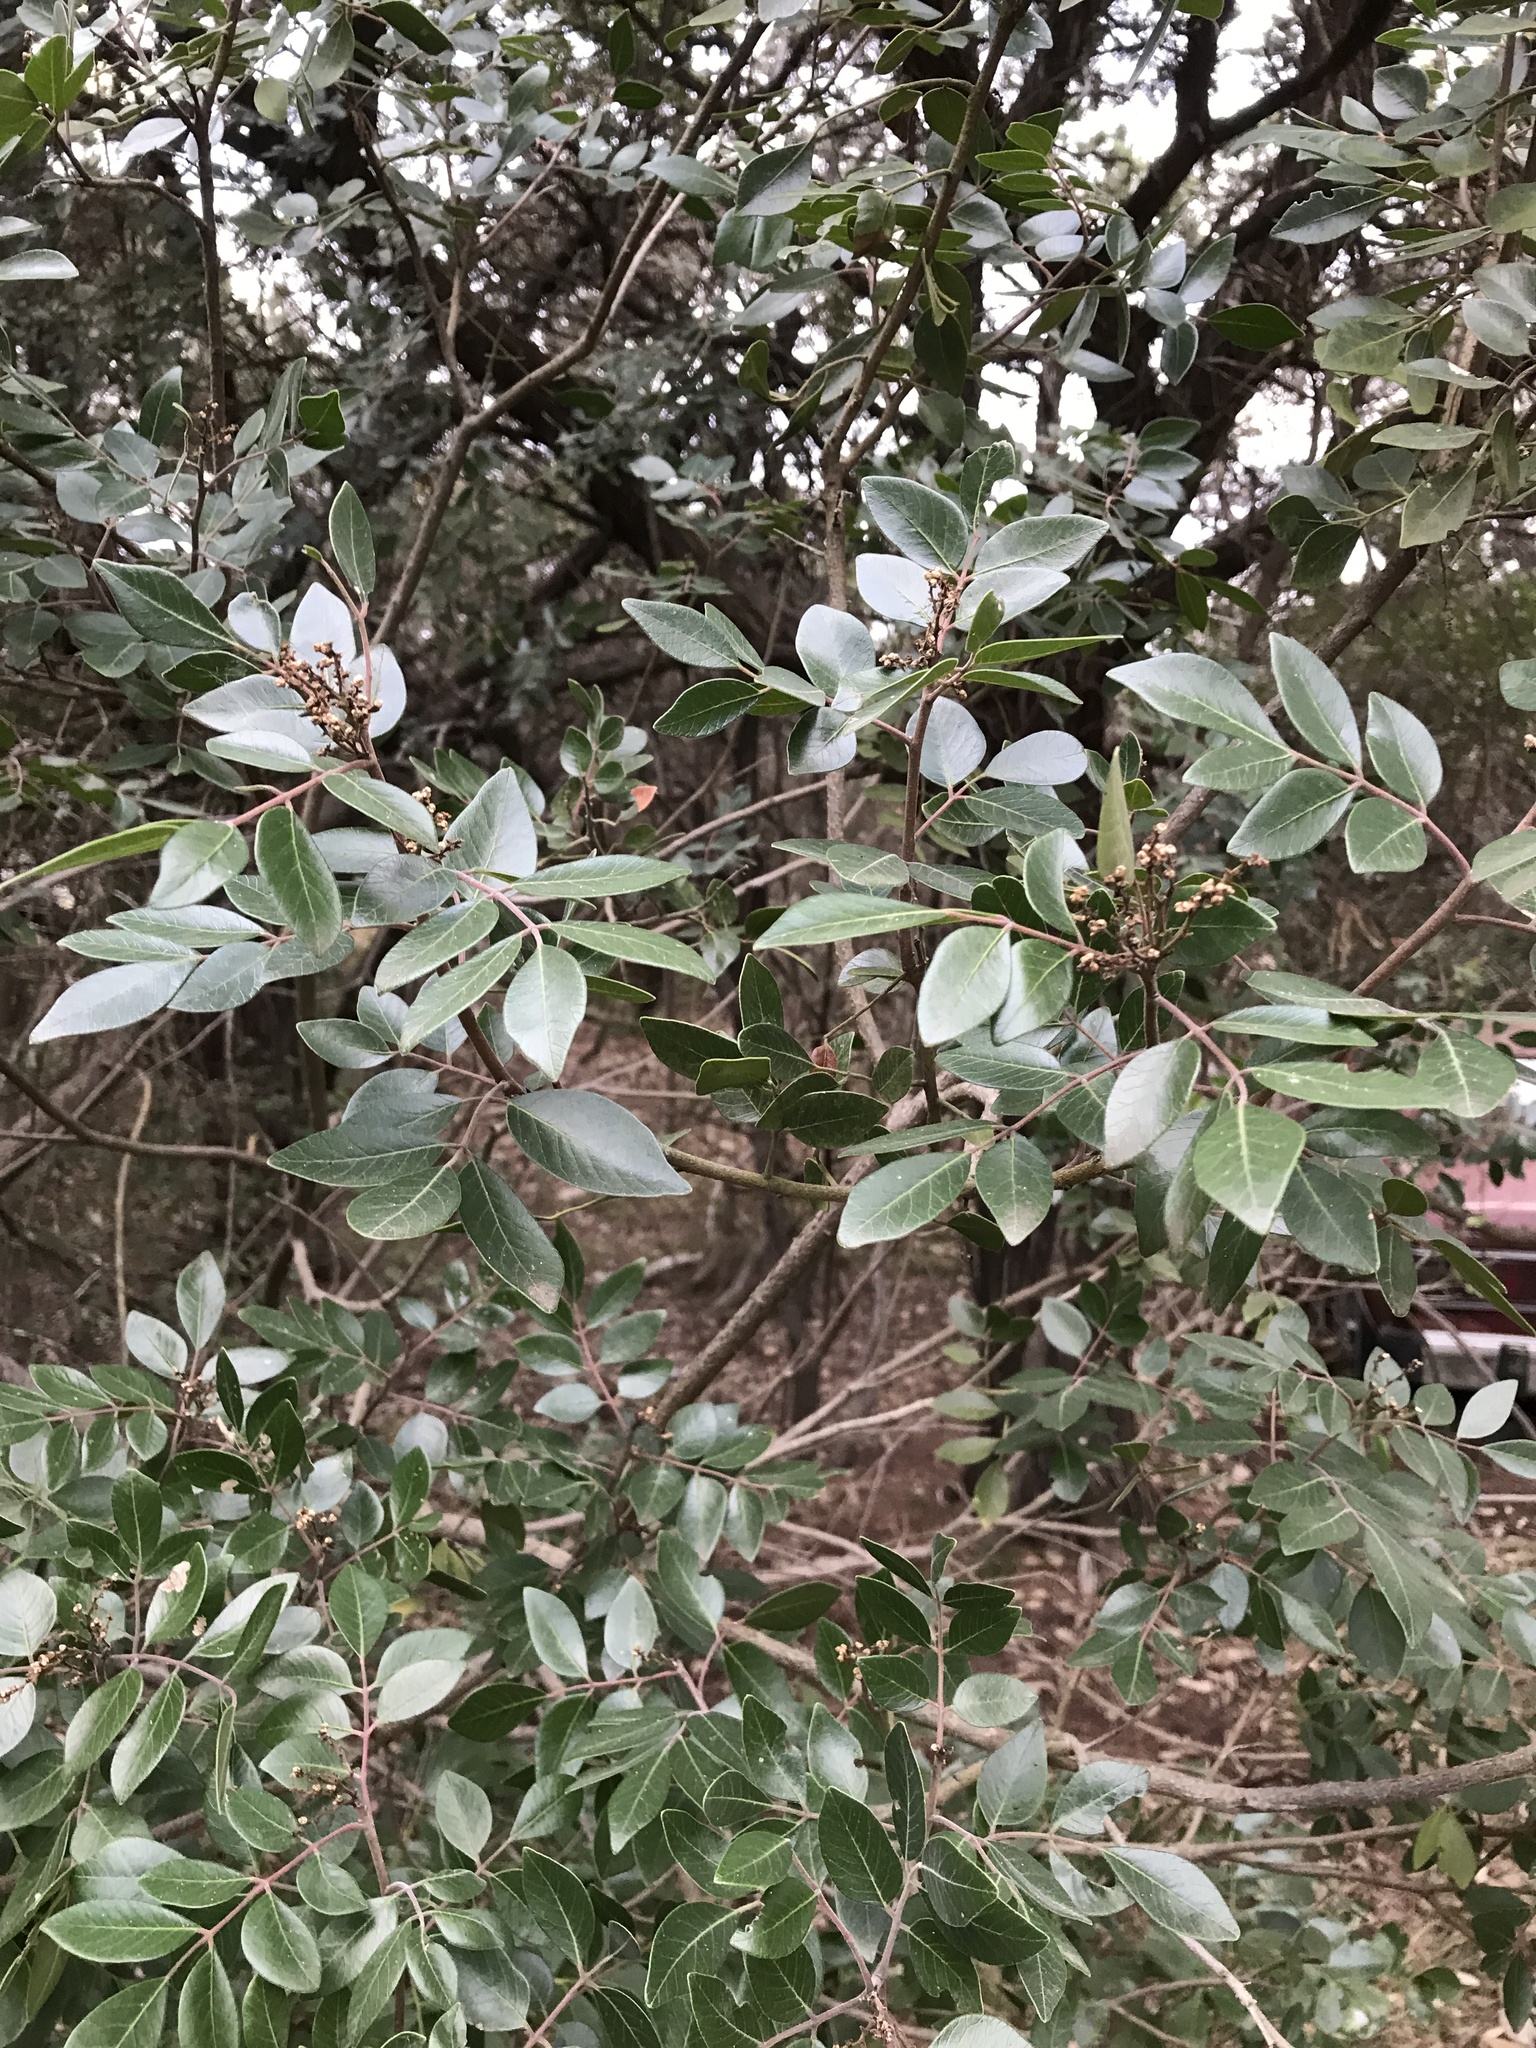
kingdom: Plantae
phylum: Tracheophyta
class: Magnoliopsida
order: Sapindales
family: Anacardiaceae
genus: Rhus
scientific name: Rhus virens
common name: Evergreen sumac
